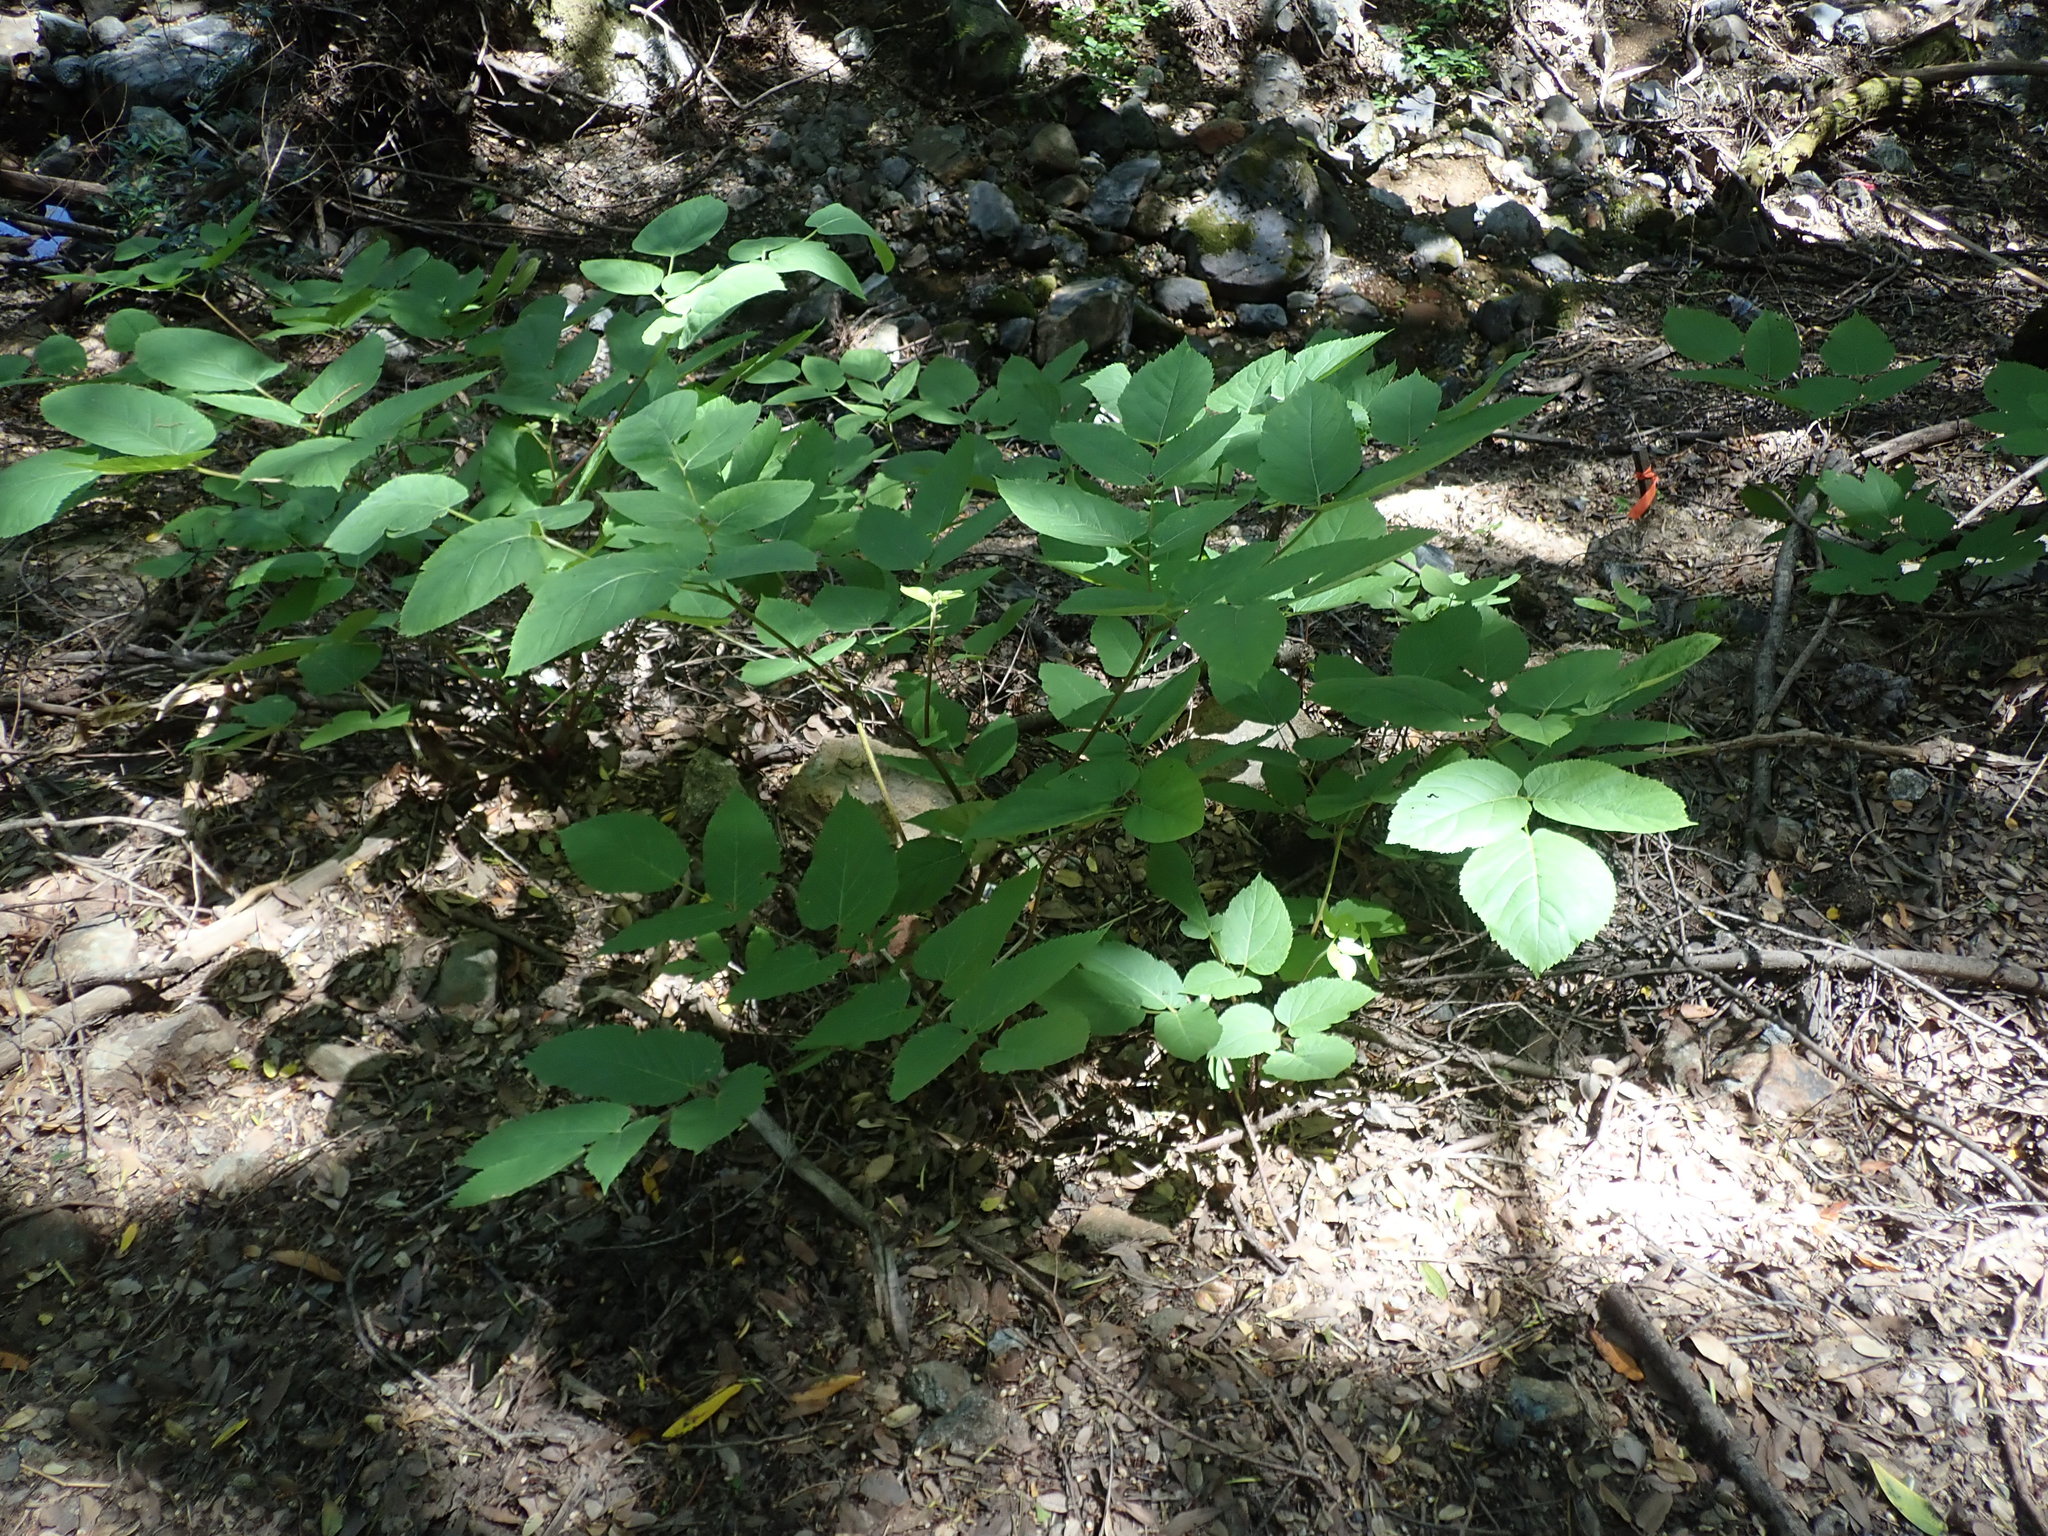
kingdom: Plantae
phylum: Tracheophyta
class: Magnoliopsida
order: Apiales
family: Araliaceae
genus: Aralia
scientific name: Aralia californica
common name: California-ginseng
